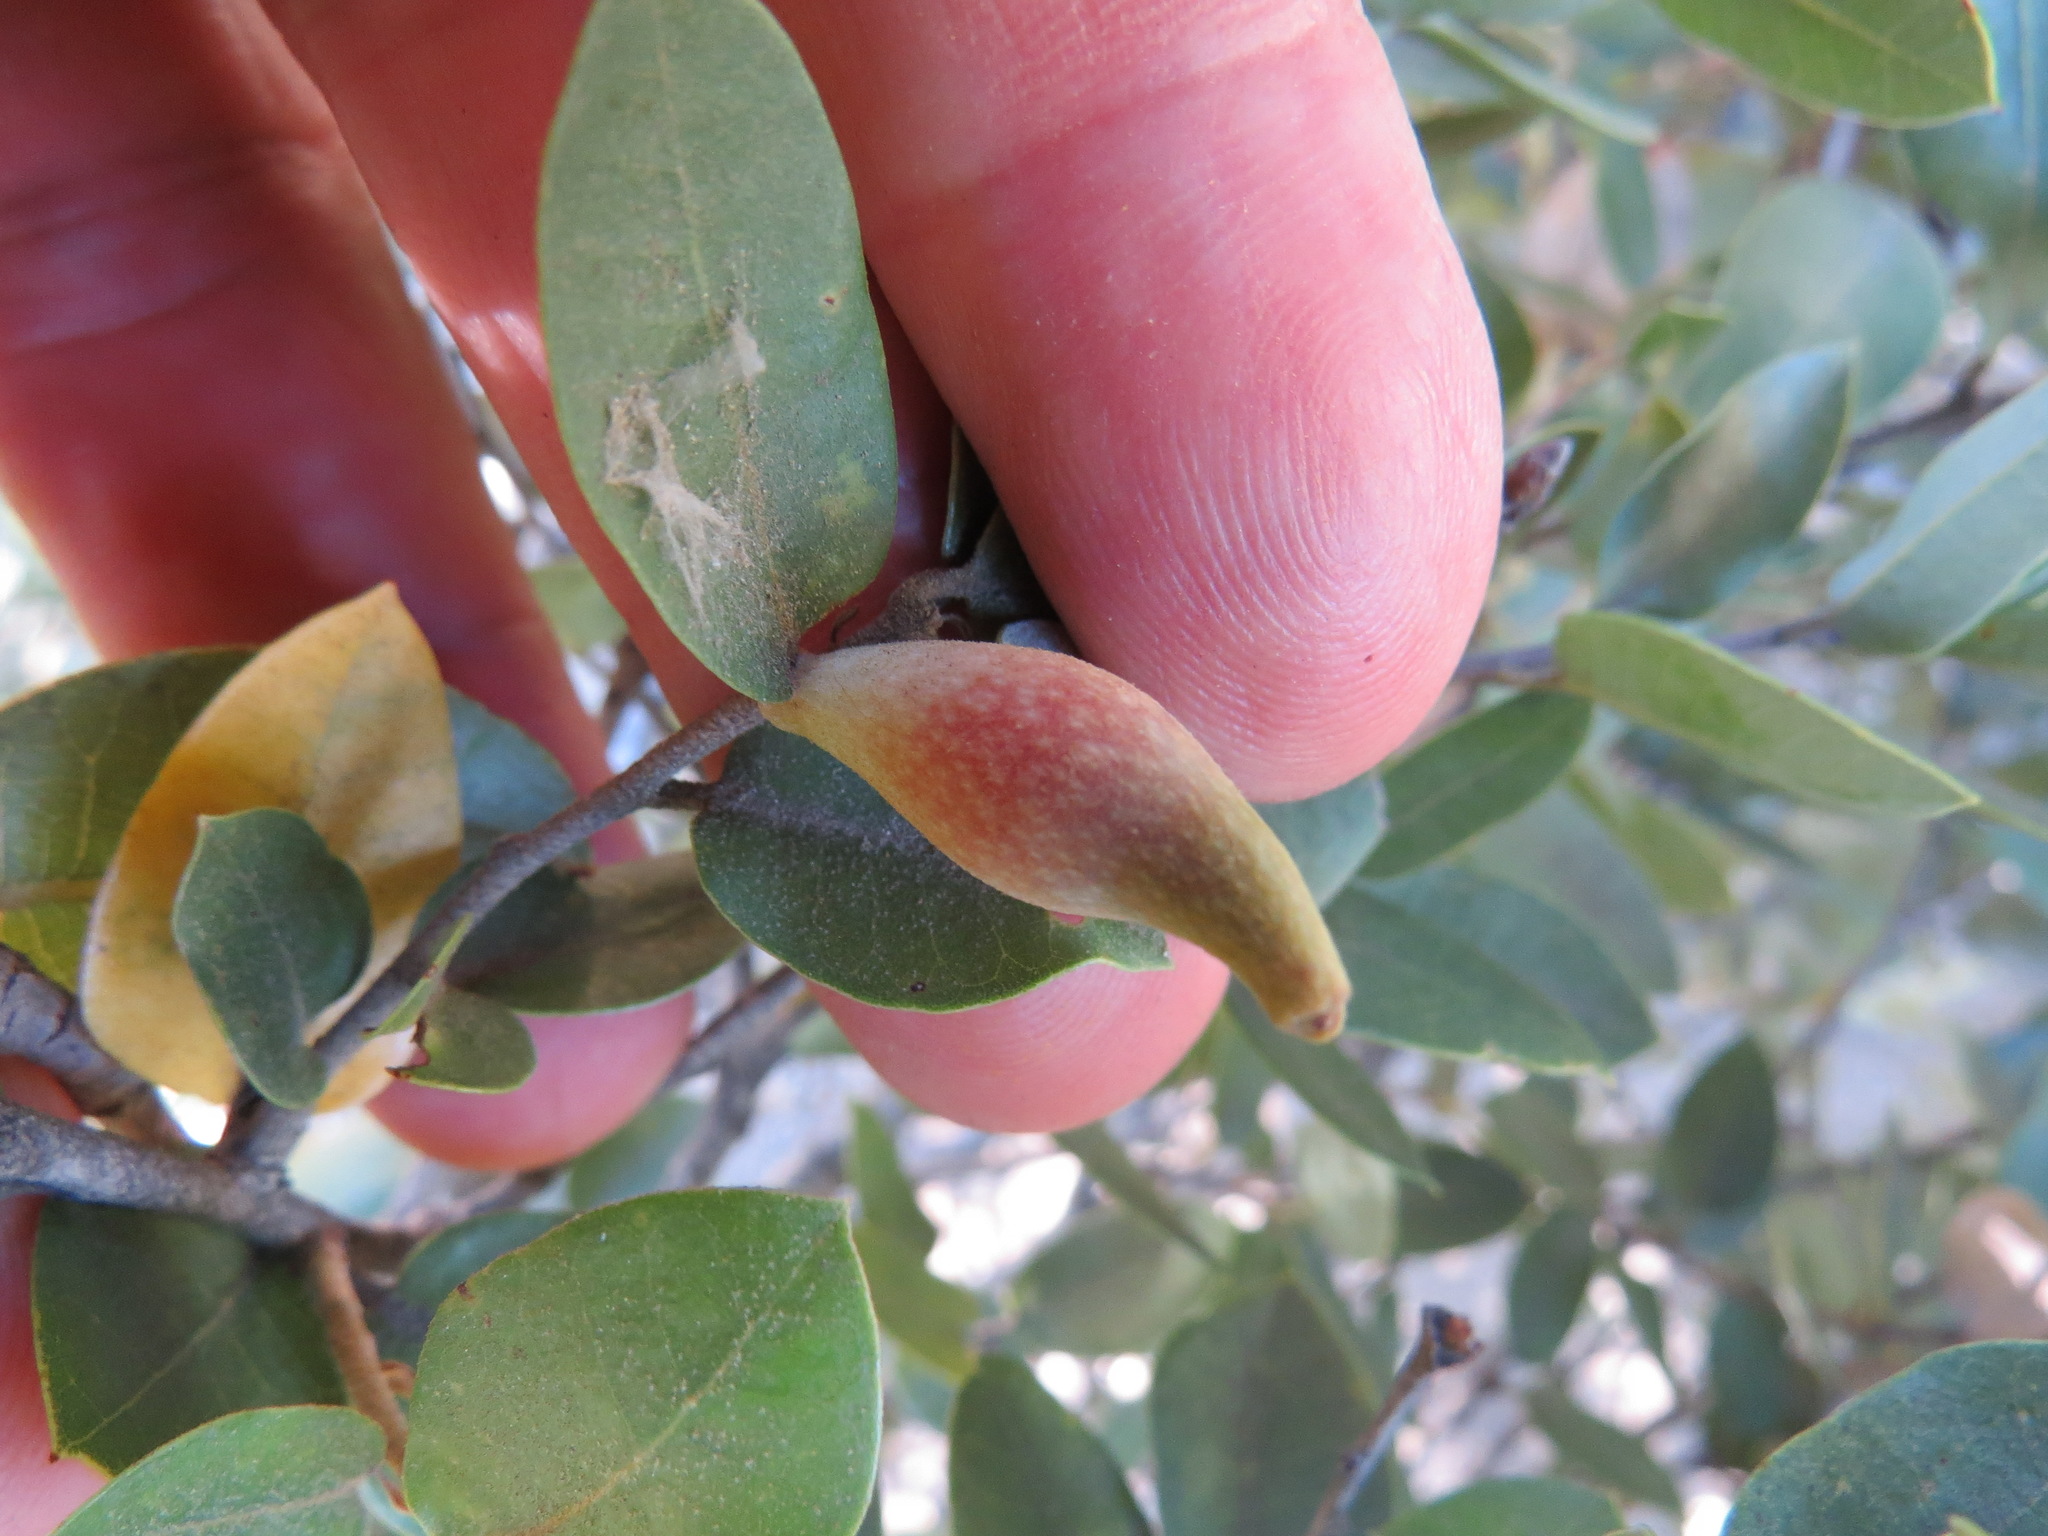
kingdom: Animalia
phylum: Arthropoda
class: Insecta
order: Hymenoptera
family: Cynipidae
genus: Heteroecus
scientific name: Heteroecus pacificus
